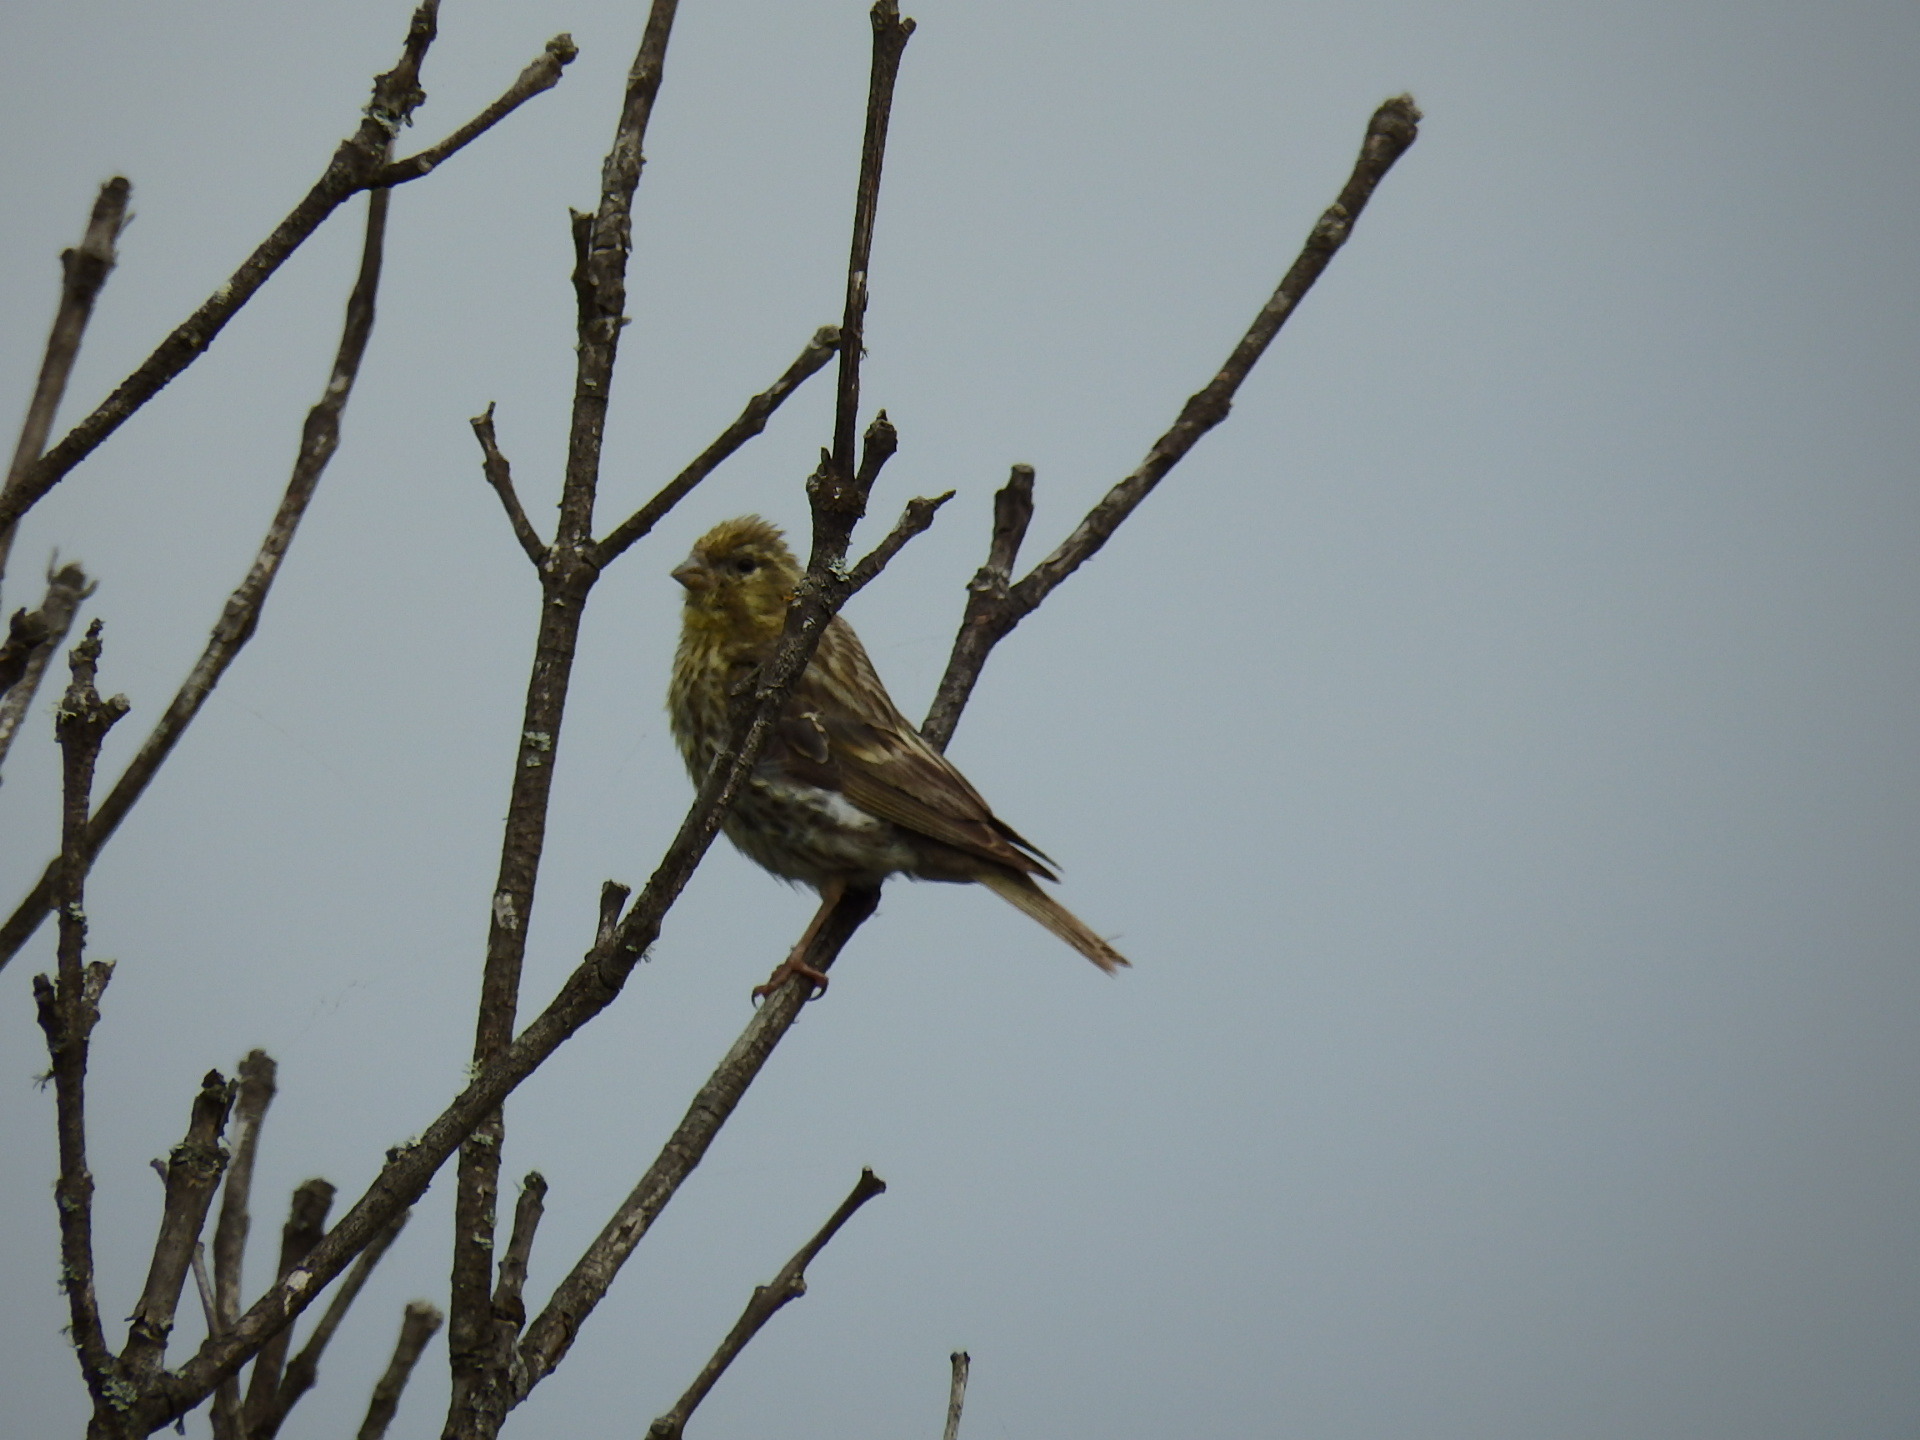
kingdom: Animalia
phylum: Chordata
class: Aves
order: Passeriformes
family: Fringillidae
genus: Serinus
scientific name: Serinus serinus
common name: European serin
